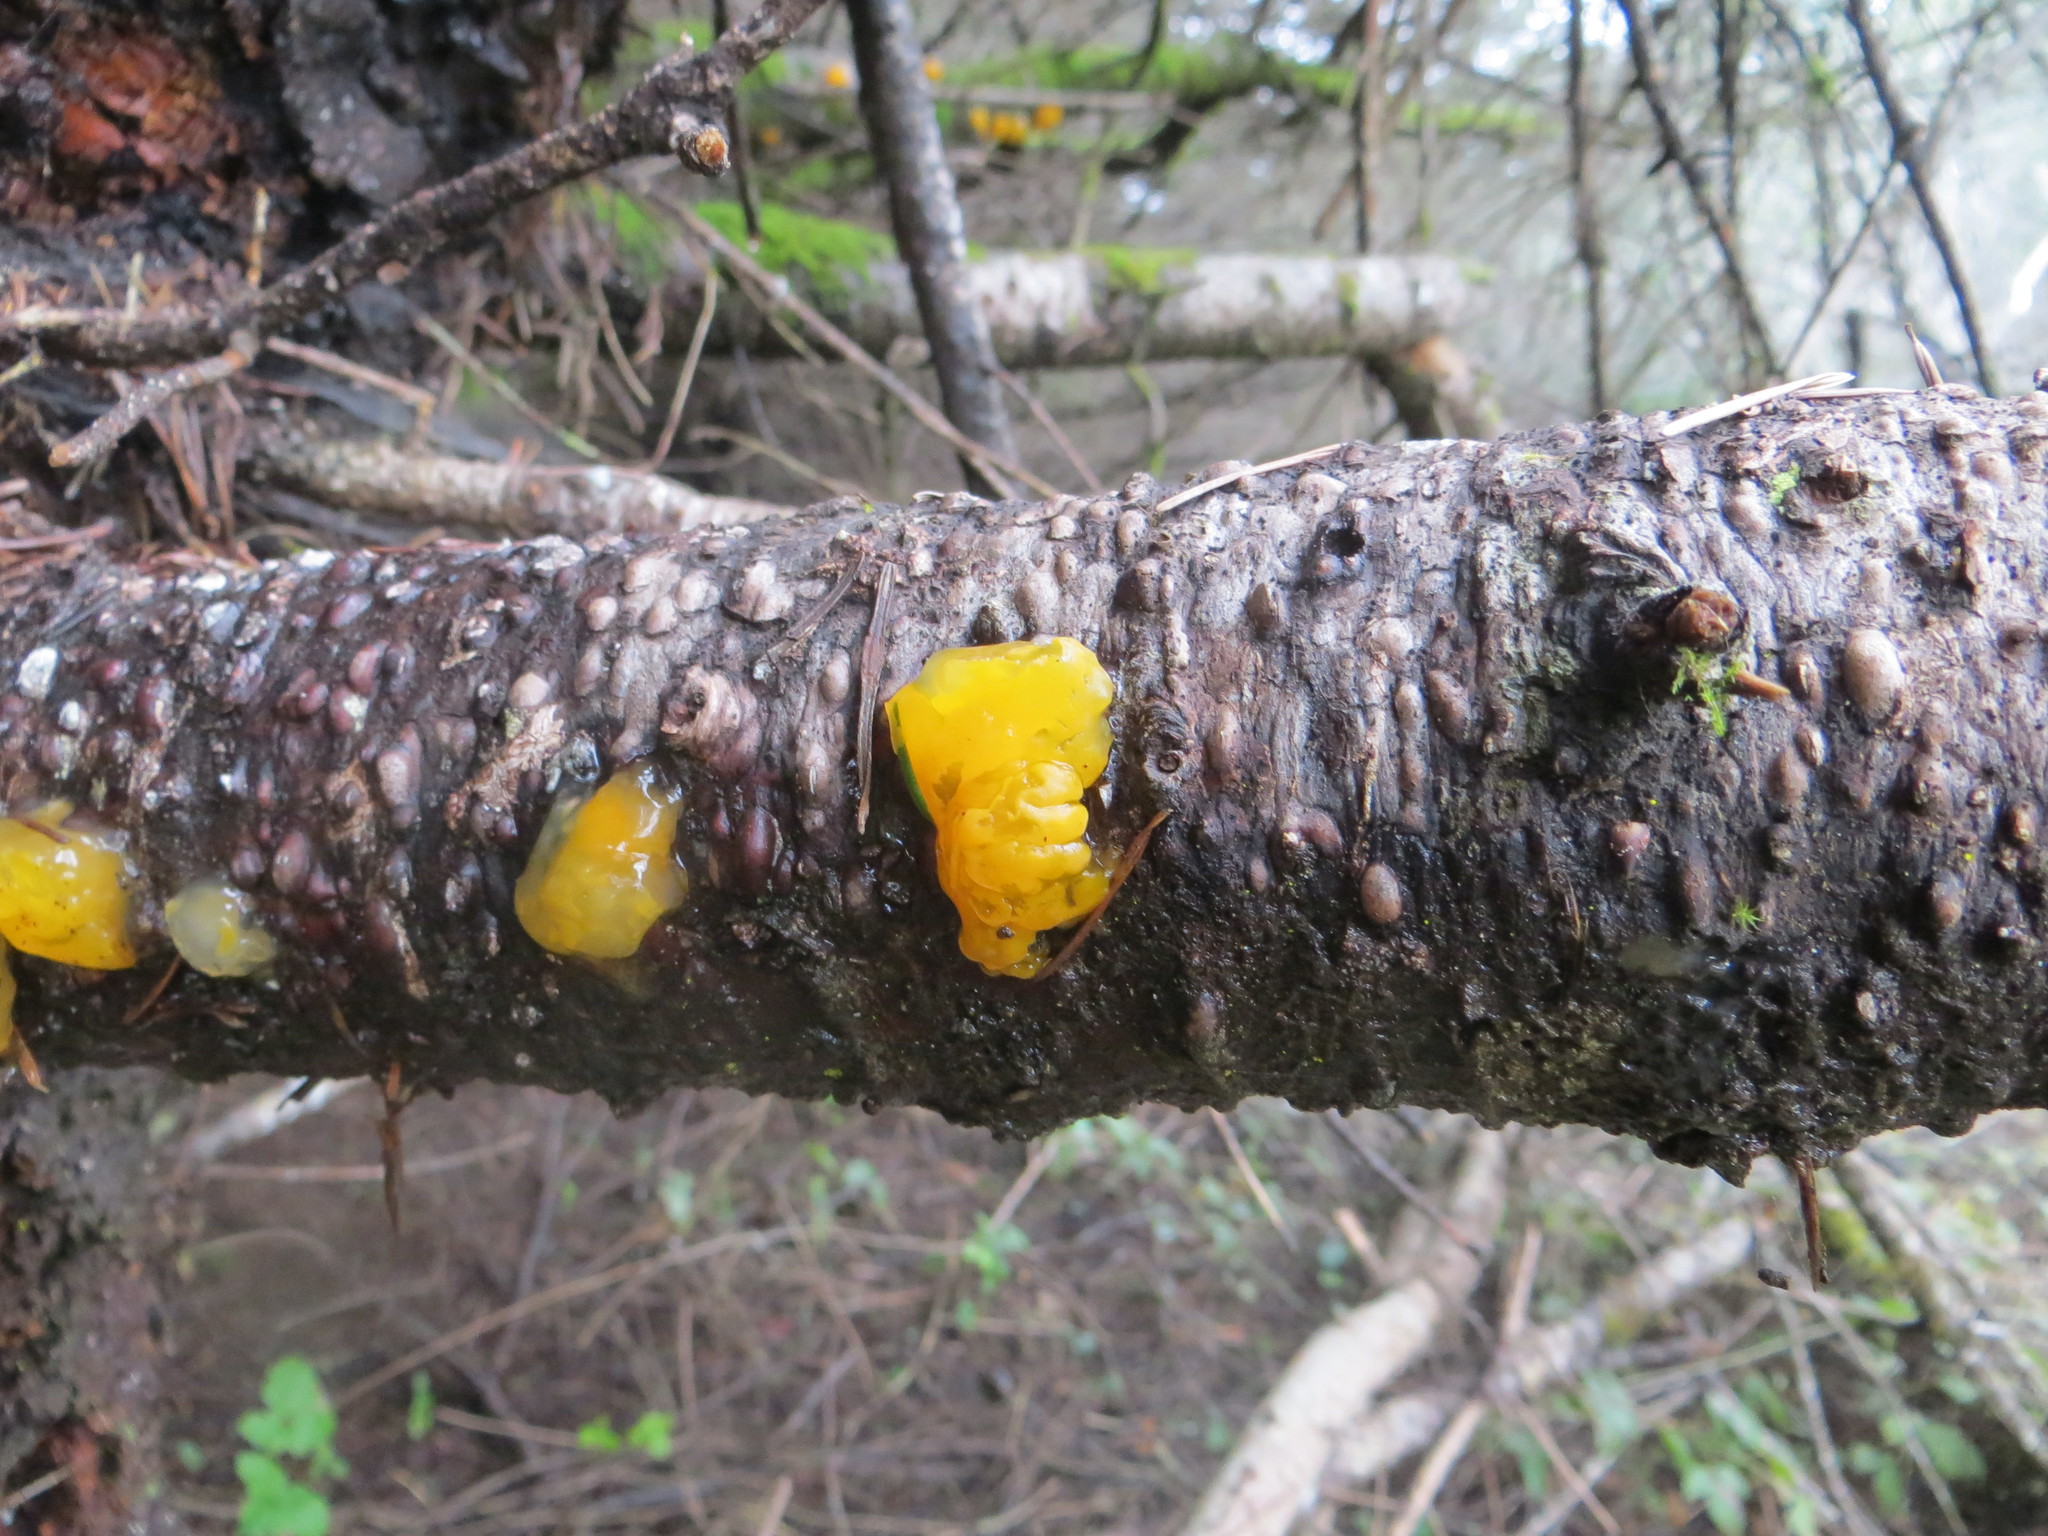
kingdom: Fungi
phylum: Basidiomycota
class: Dacrymycetes
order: Dacrymycetales
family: Dacrymycetaceae
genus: Dacrymyces
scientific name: Dacrymyces chrysospermus
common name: Orange jelly spot
